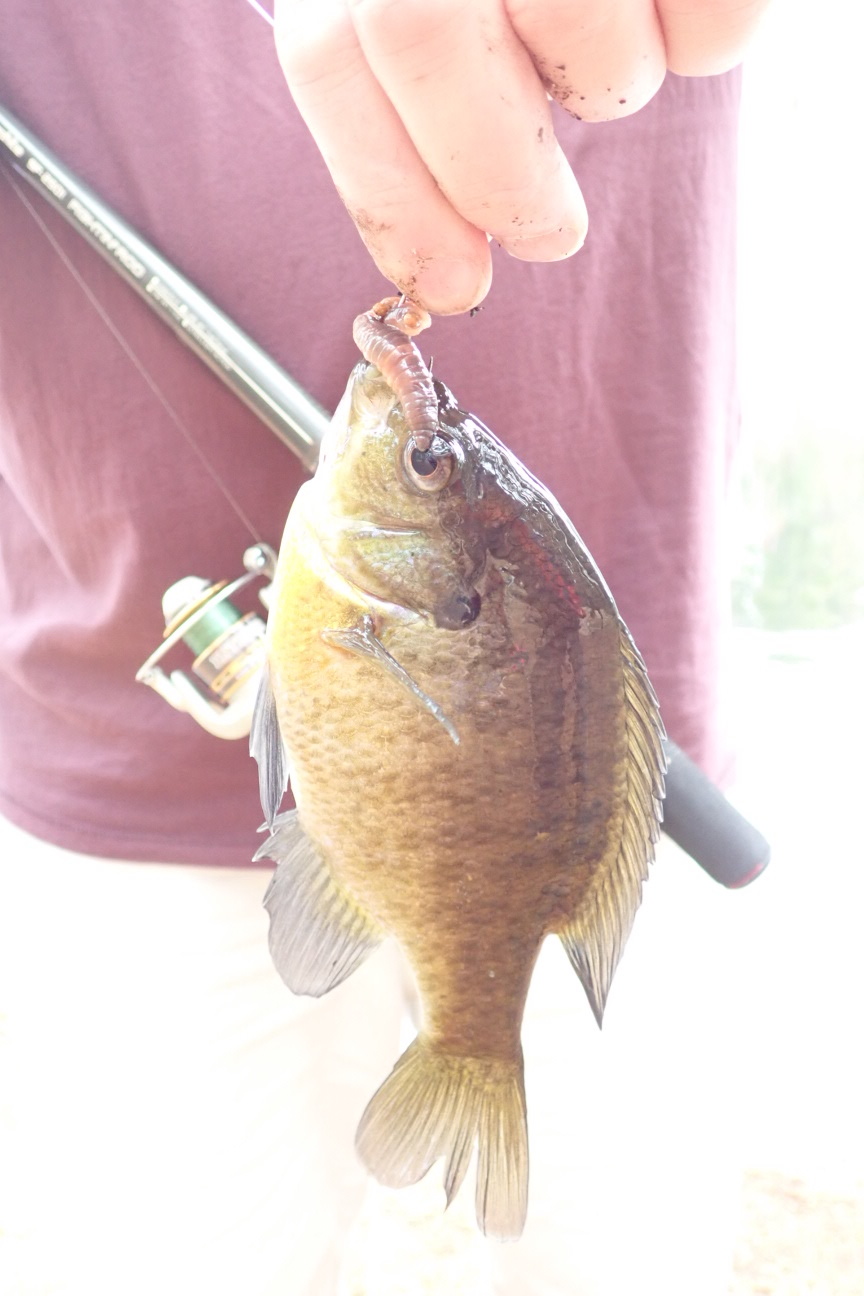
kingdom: Animalia
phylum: Chordata
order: Perciformes
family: Centrarchidae
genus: Lepomis
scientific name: Lepomis macrochirus
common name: Bluegill
